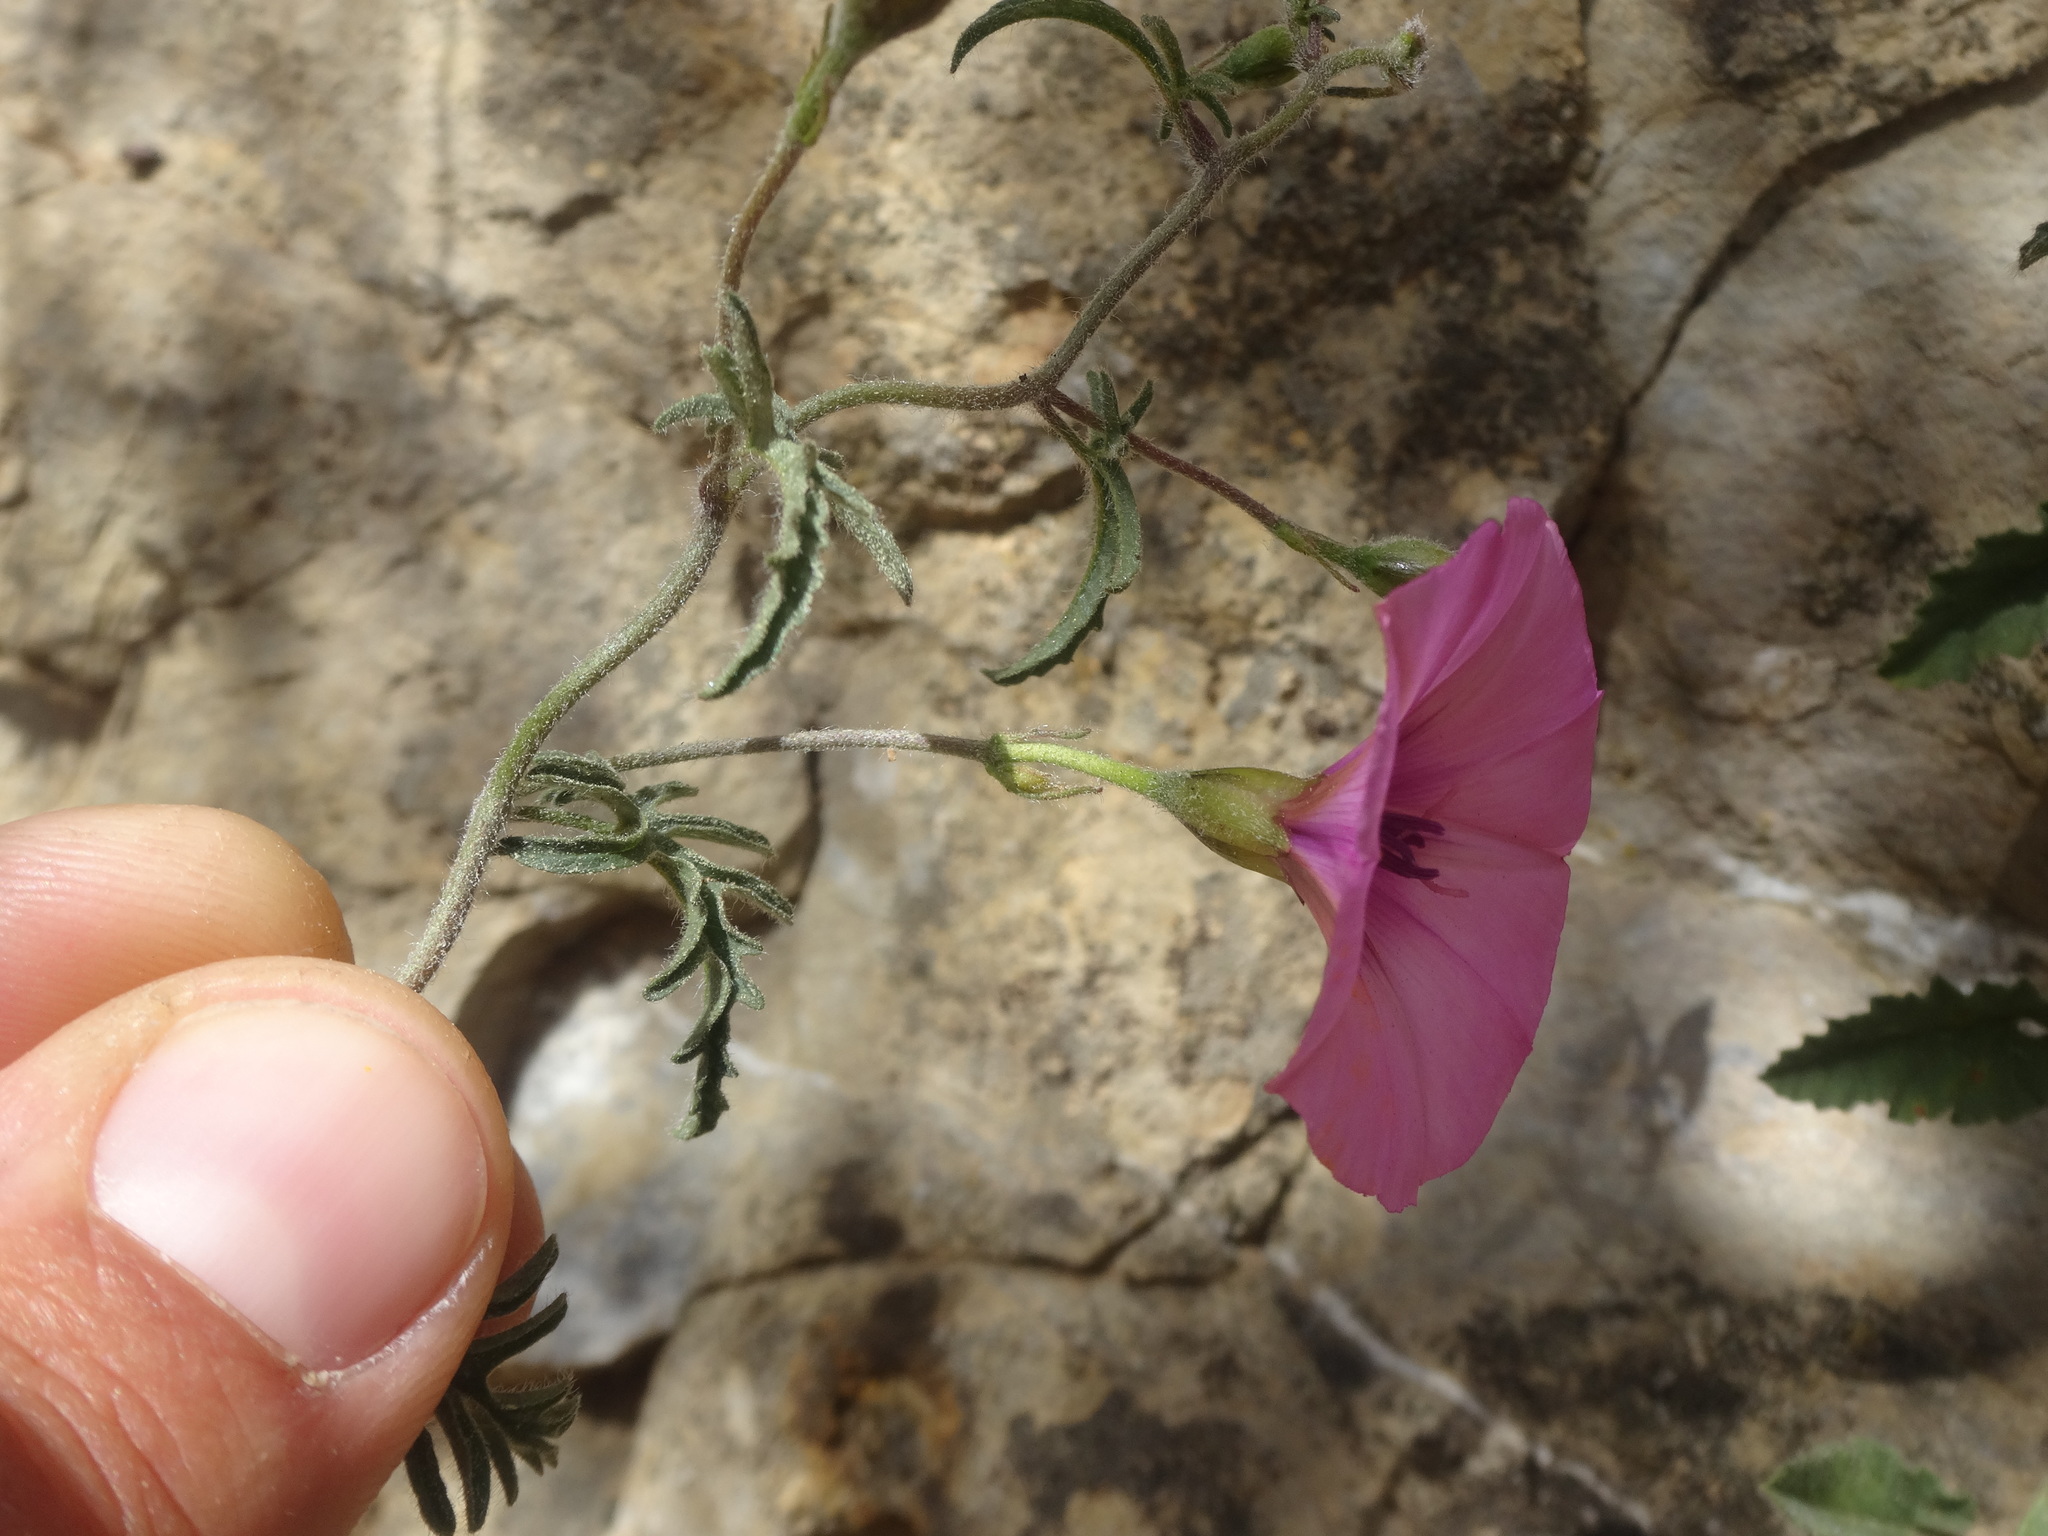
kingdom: Plantae
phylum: Tracheophyta
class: Magnoliopsida
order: Solanales
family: Convolvulaceae
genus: Convolvulus
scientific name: Convolvulus althaeoides
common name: Mallow bindweed
